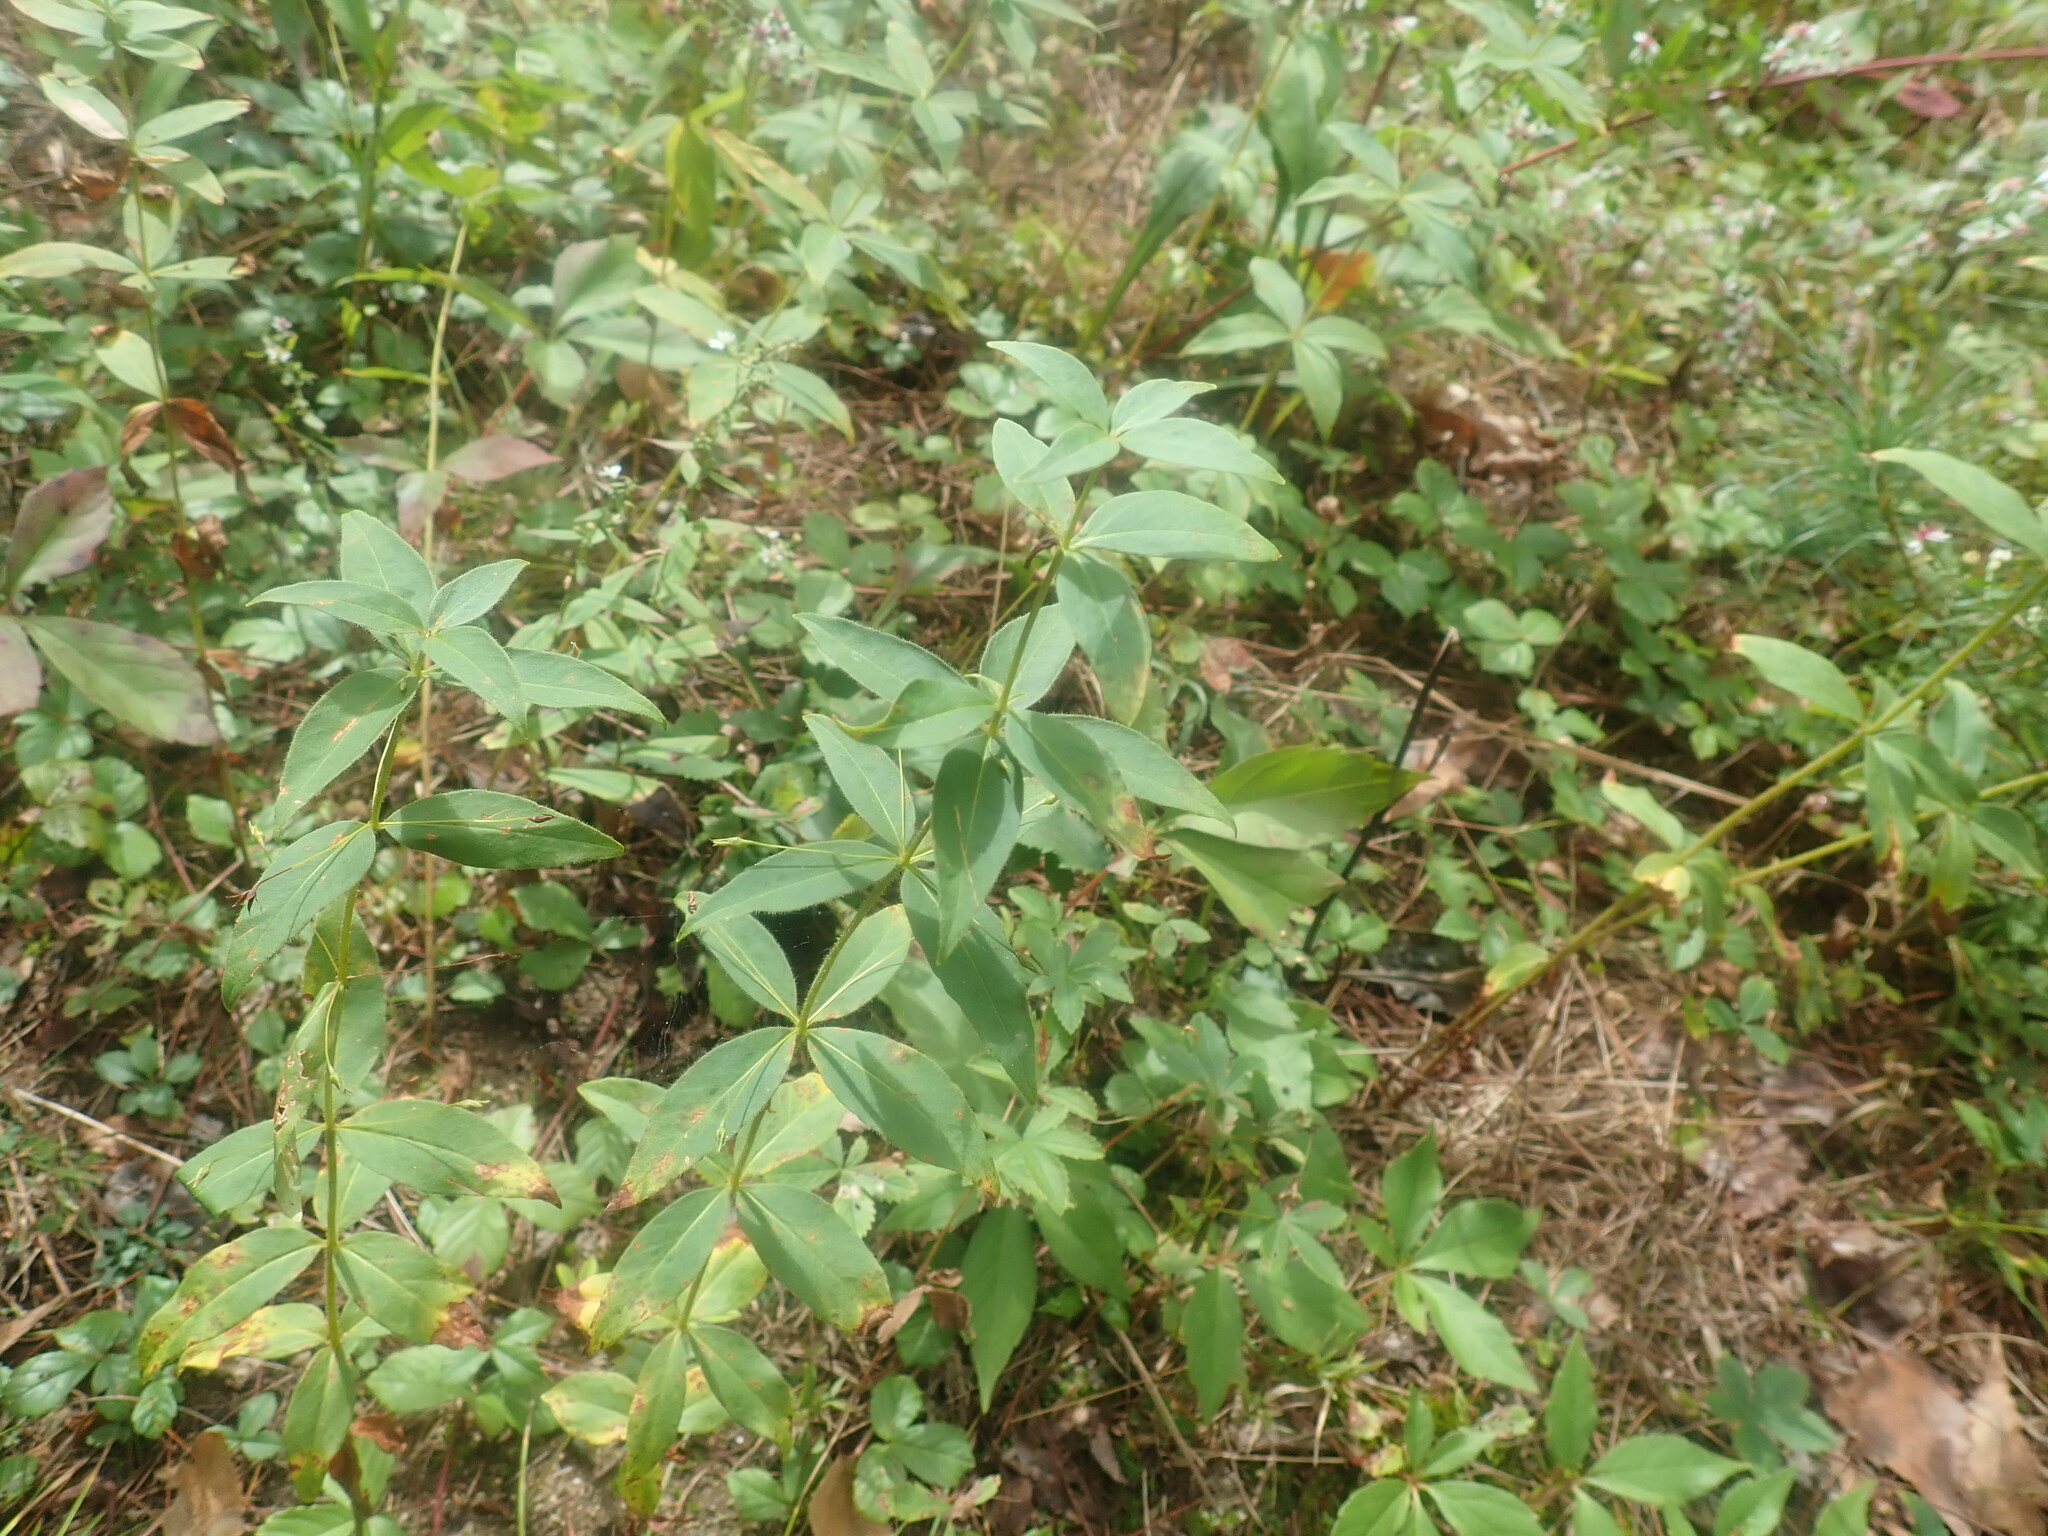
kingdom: Plantae
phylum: Tracheophyta
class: Magnoliopsida
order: Ericales
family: Primulaceae
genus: Lysimachia
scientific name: Lysimachia quadrifolia
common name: Whorled loosestrife
